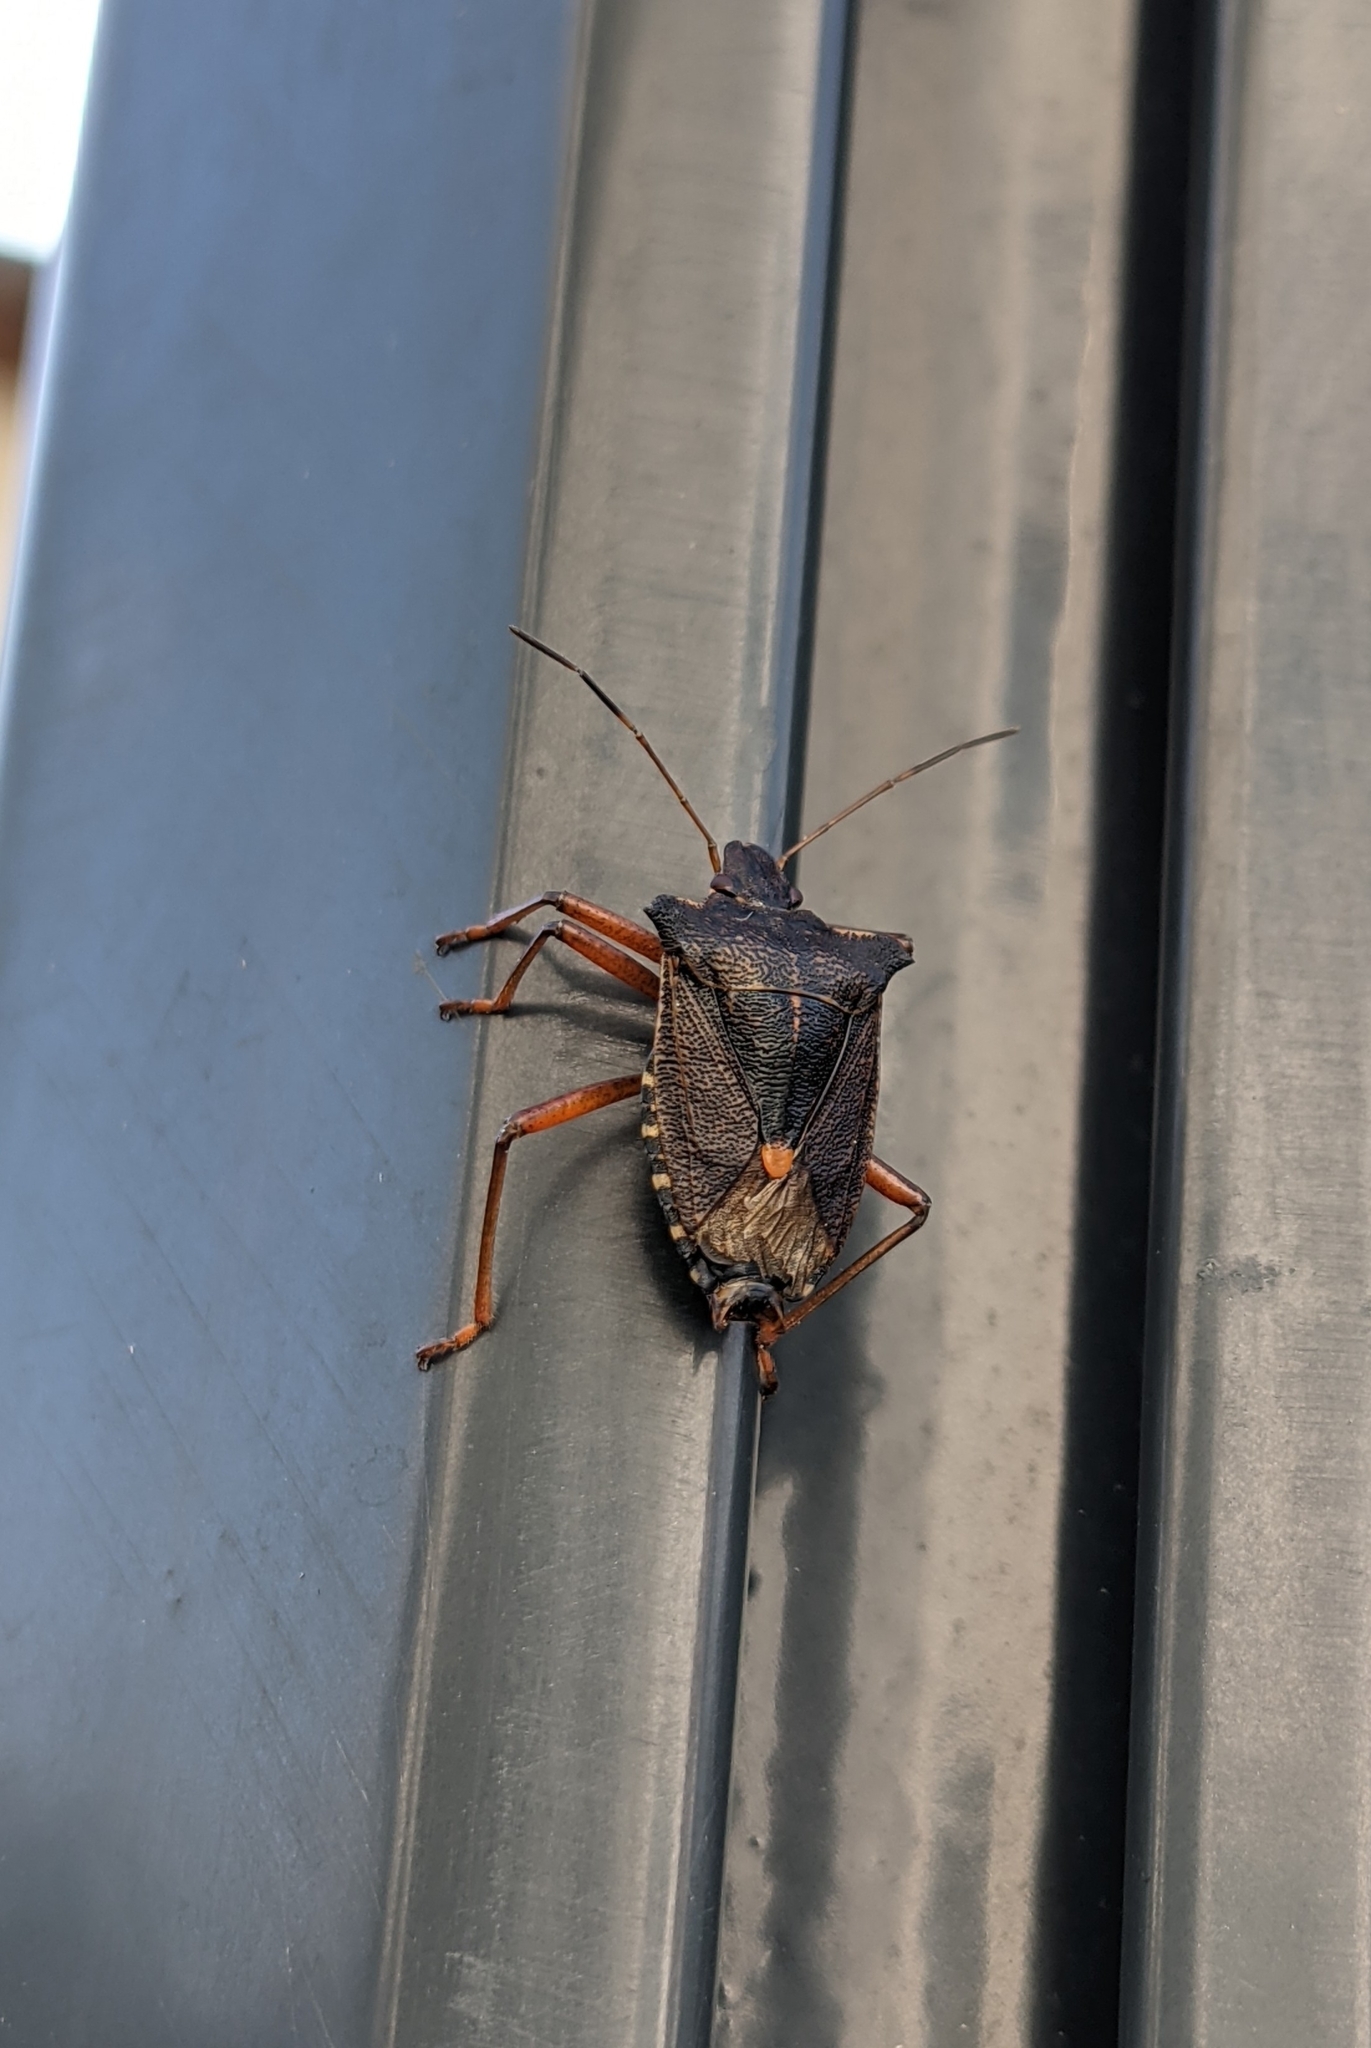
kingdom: Animalia
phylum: Arthropoda
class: Insecta
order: Hemiptera
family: Pentatomidae
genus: Pentatoma
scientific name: Pentatoma rufipes
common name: Forest bug
